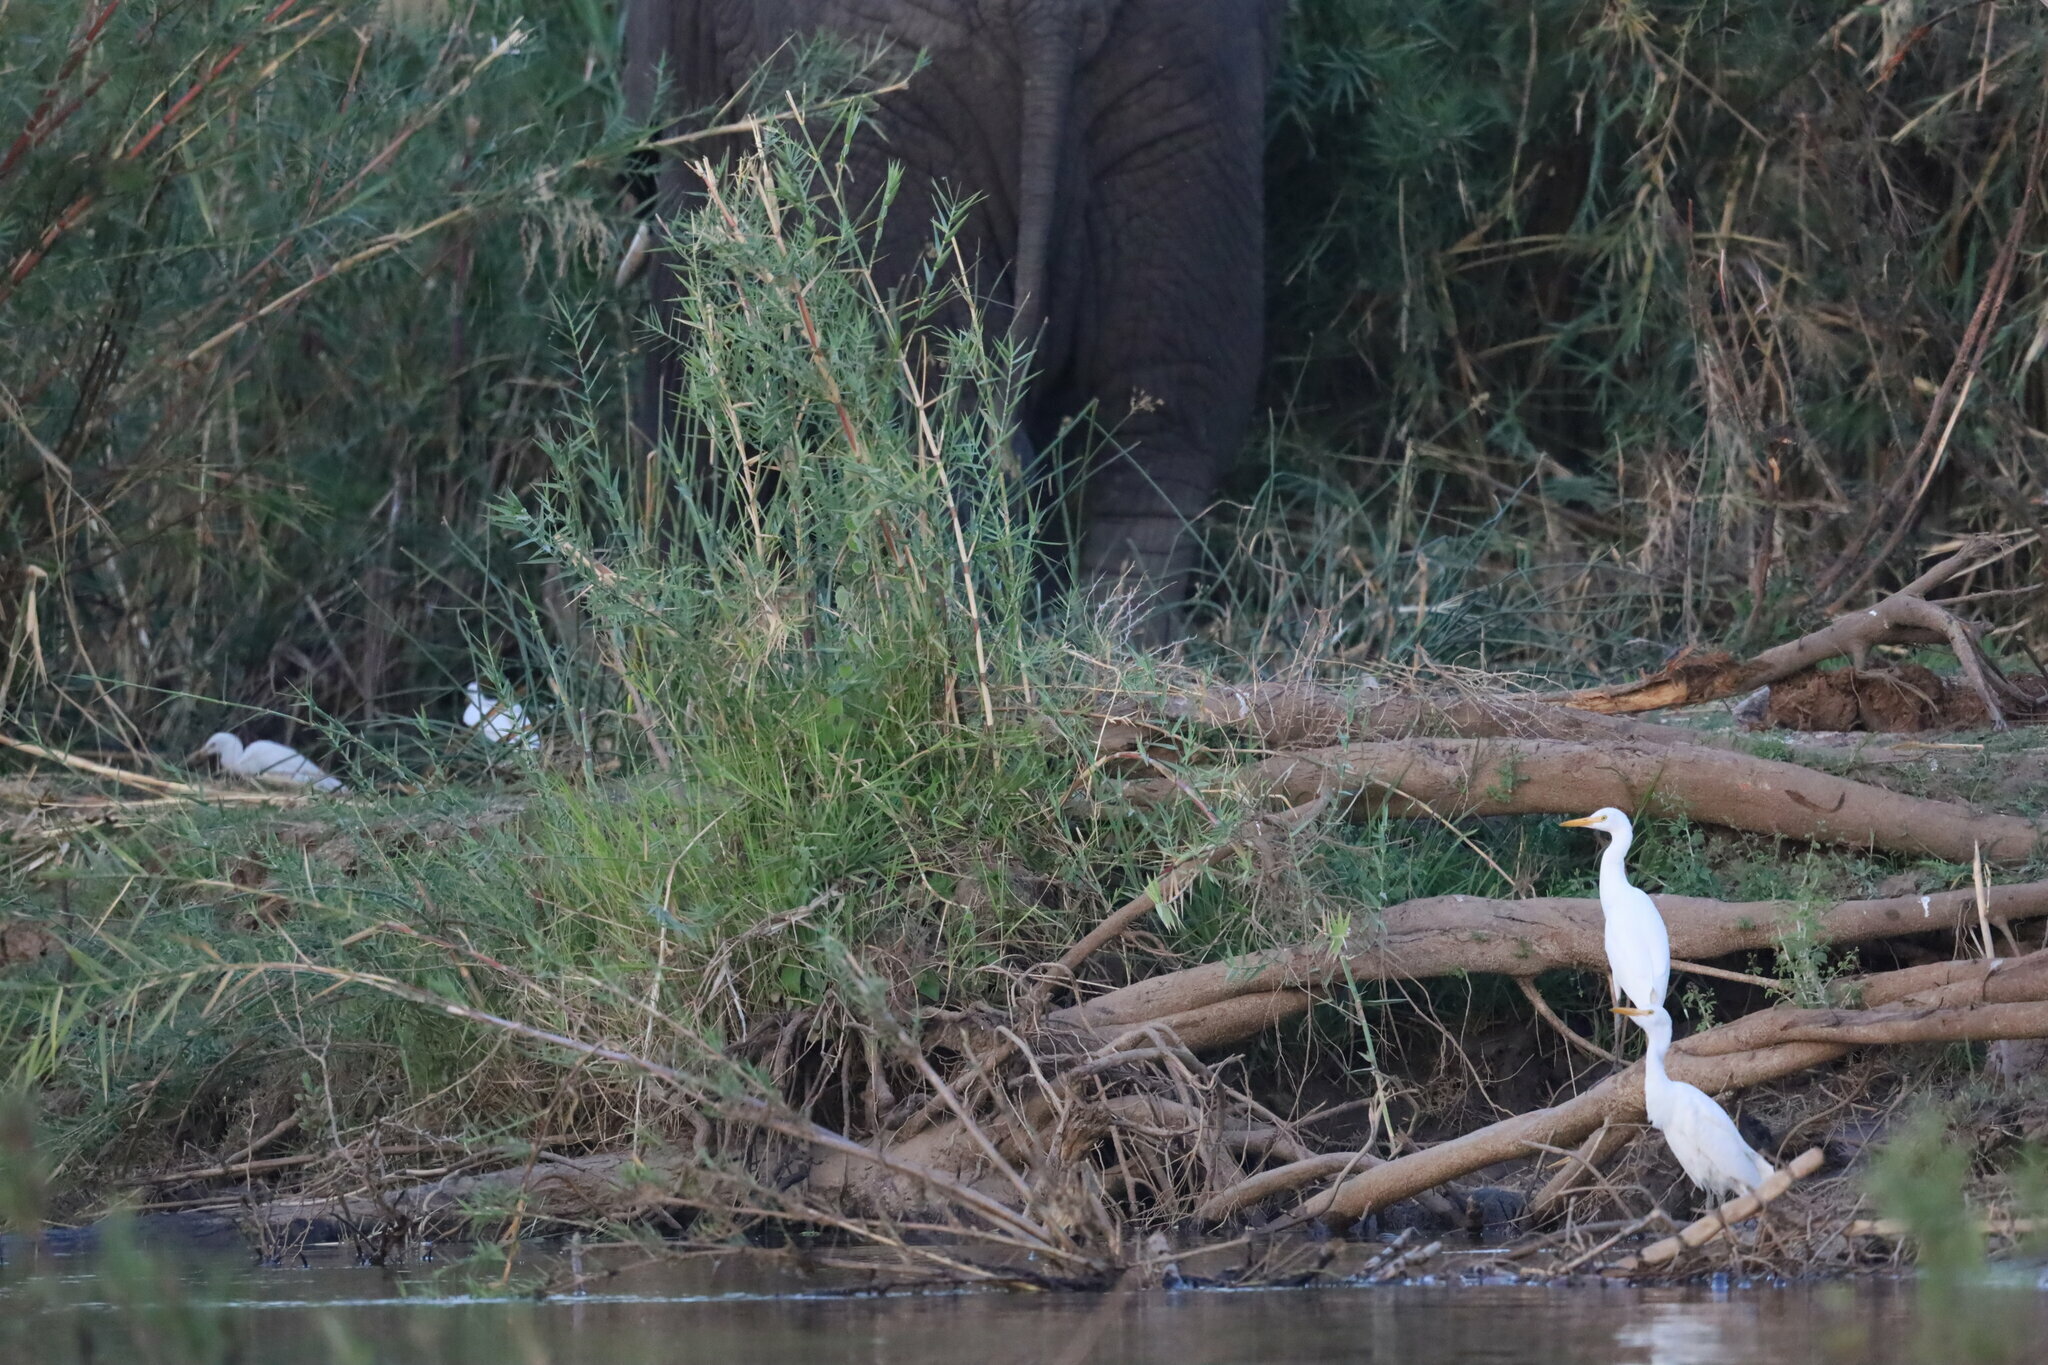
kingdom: Animalia
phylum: Chordata
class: Aves
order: Pelecaniformes
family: Ardeidae
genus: Bubulcus
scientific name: Bubulcus ibis
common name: Cattle egret
